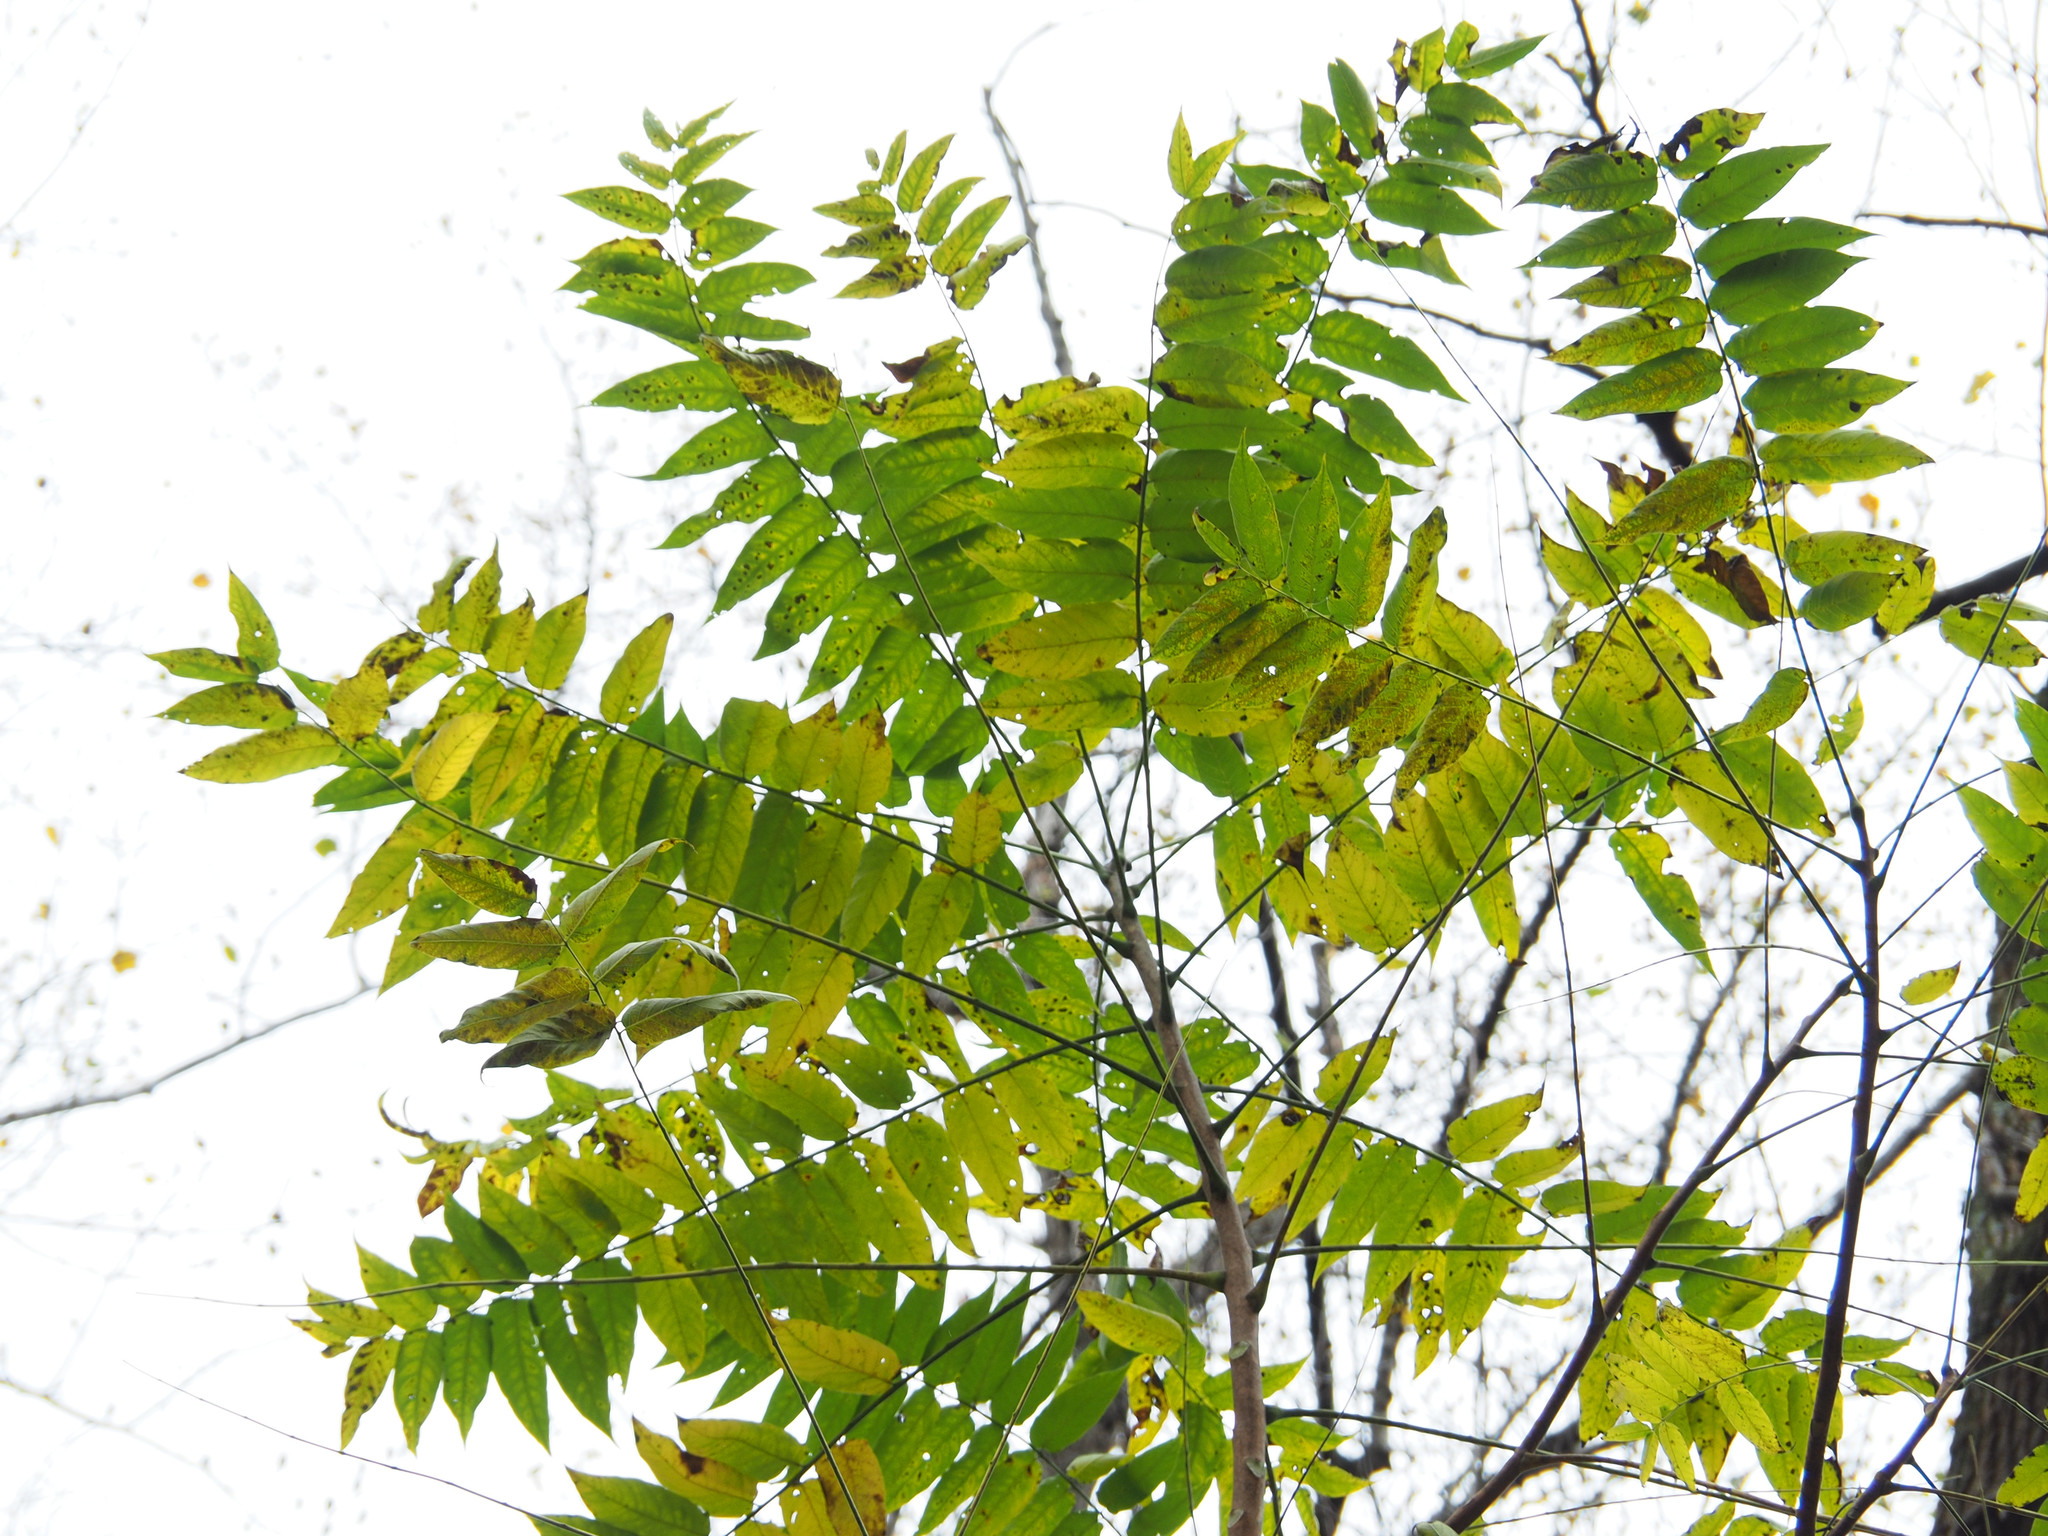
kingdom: Plantae
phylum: Tracheophyta
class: Magnoliopsida
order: Sapindales
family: Simaroubaceae
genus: Ailanthus
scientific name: Ailanthus altissima
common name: Tree-of-heaven
